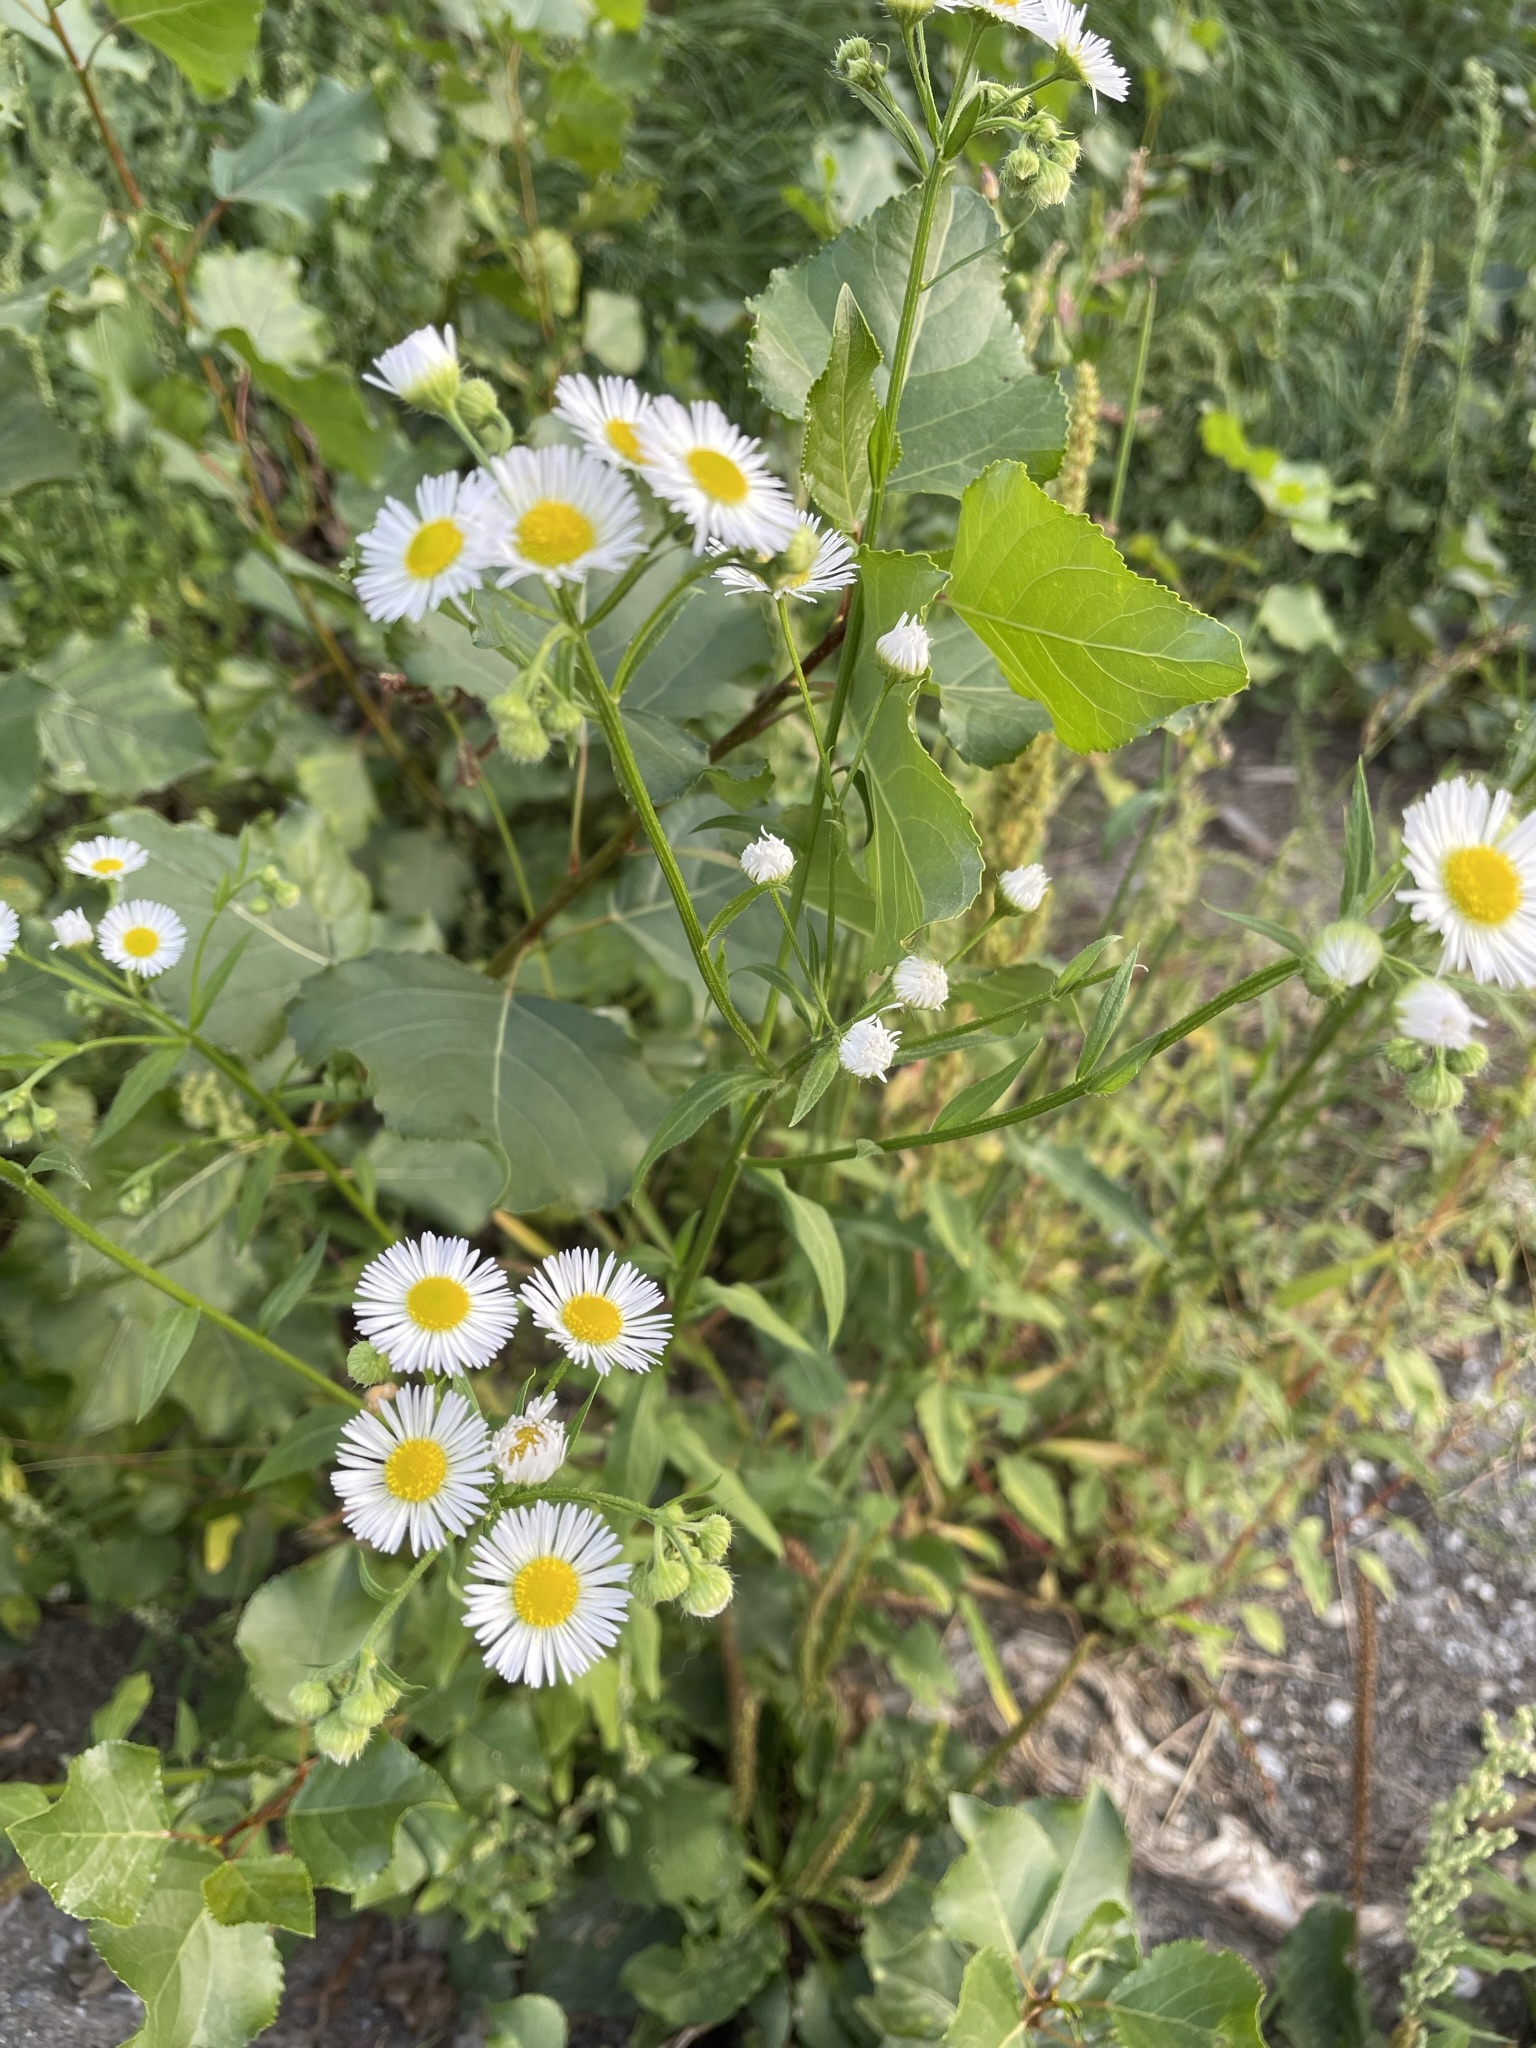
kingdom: Plantae
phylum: Tracheophyta
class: Magnoliopsida
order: Asterales
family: Asteraceae
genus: Erigeron
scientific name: Erigeron annuus
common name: Tall fleabane
